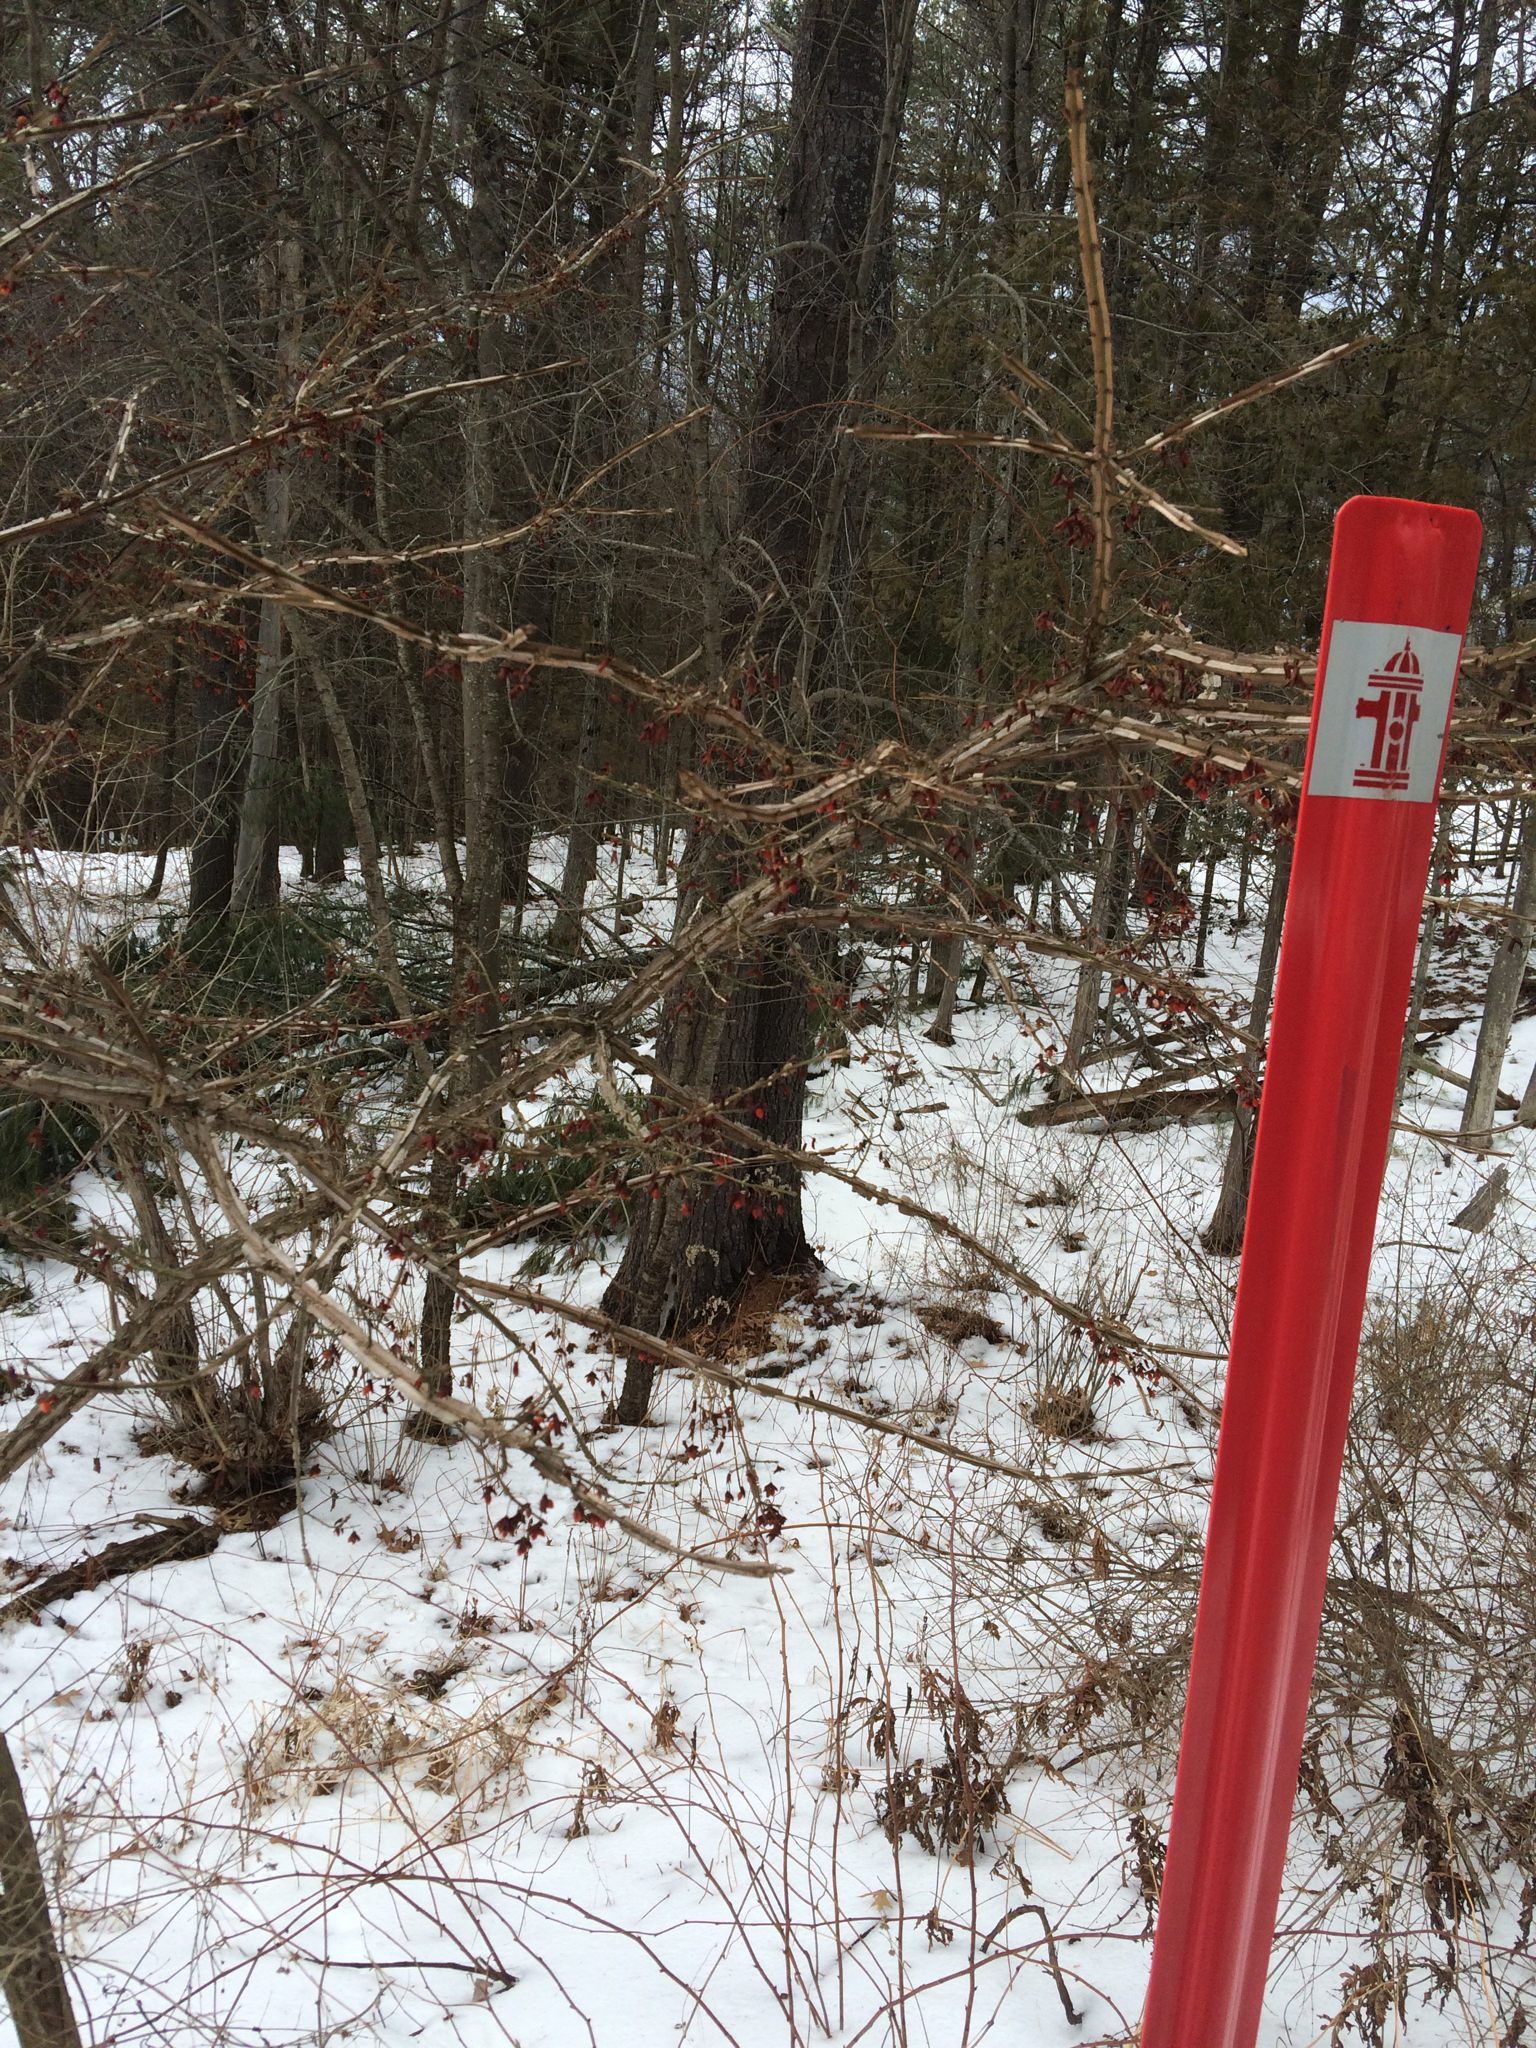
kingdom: Plantae
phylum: Tracheophyta
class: Magnoliopsida
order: Celastrales
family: Celastraceae
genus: Euonymus
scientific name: Euonymus alatus
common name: Winged euonymus
